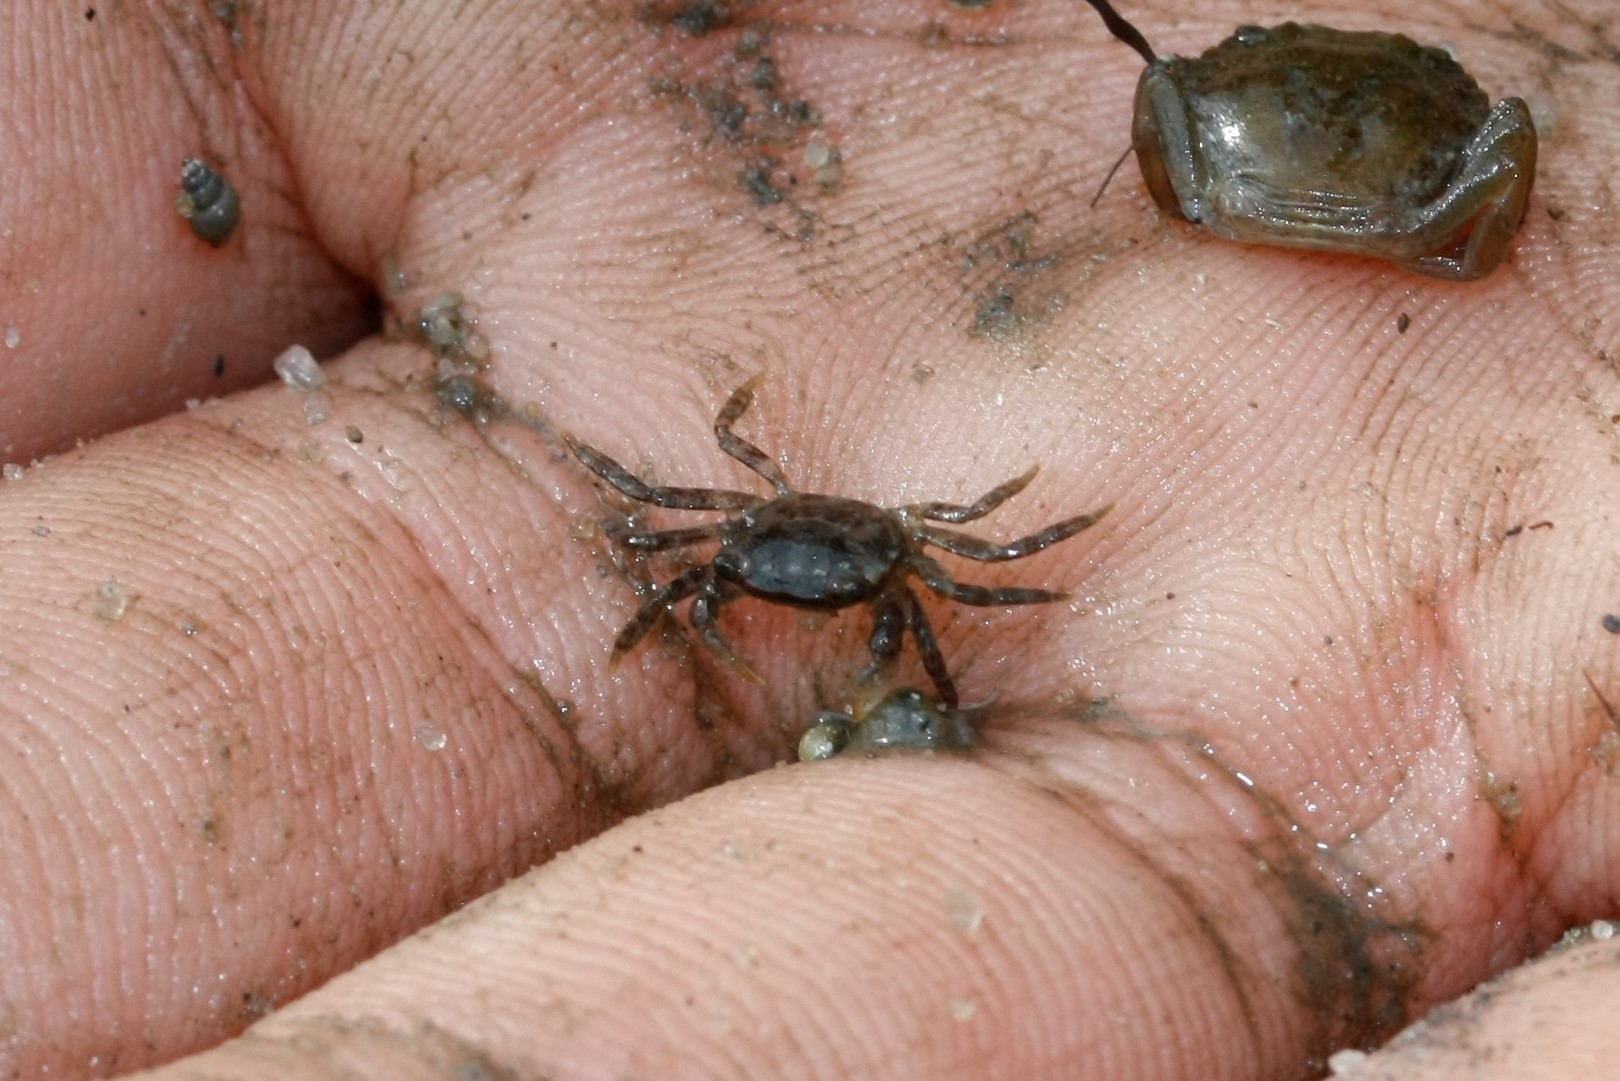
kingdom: Animalia
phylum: Arthropoda
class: Malacostraca
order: Decapoda
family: Varunidae
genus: Hemigrapsus
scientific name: Hemigrapsus sanguineus
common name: Asian shore crab
